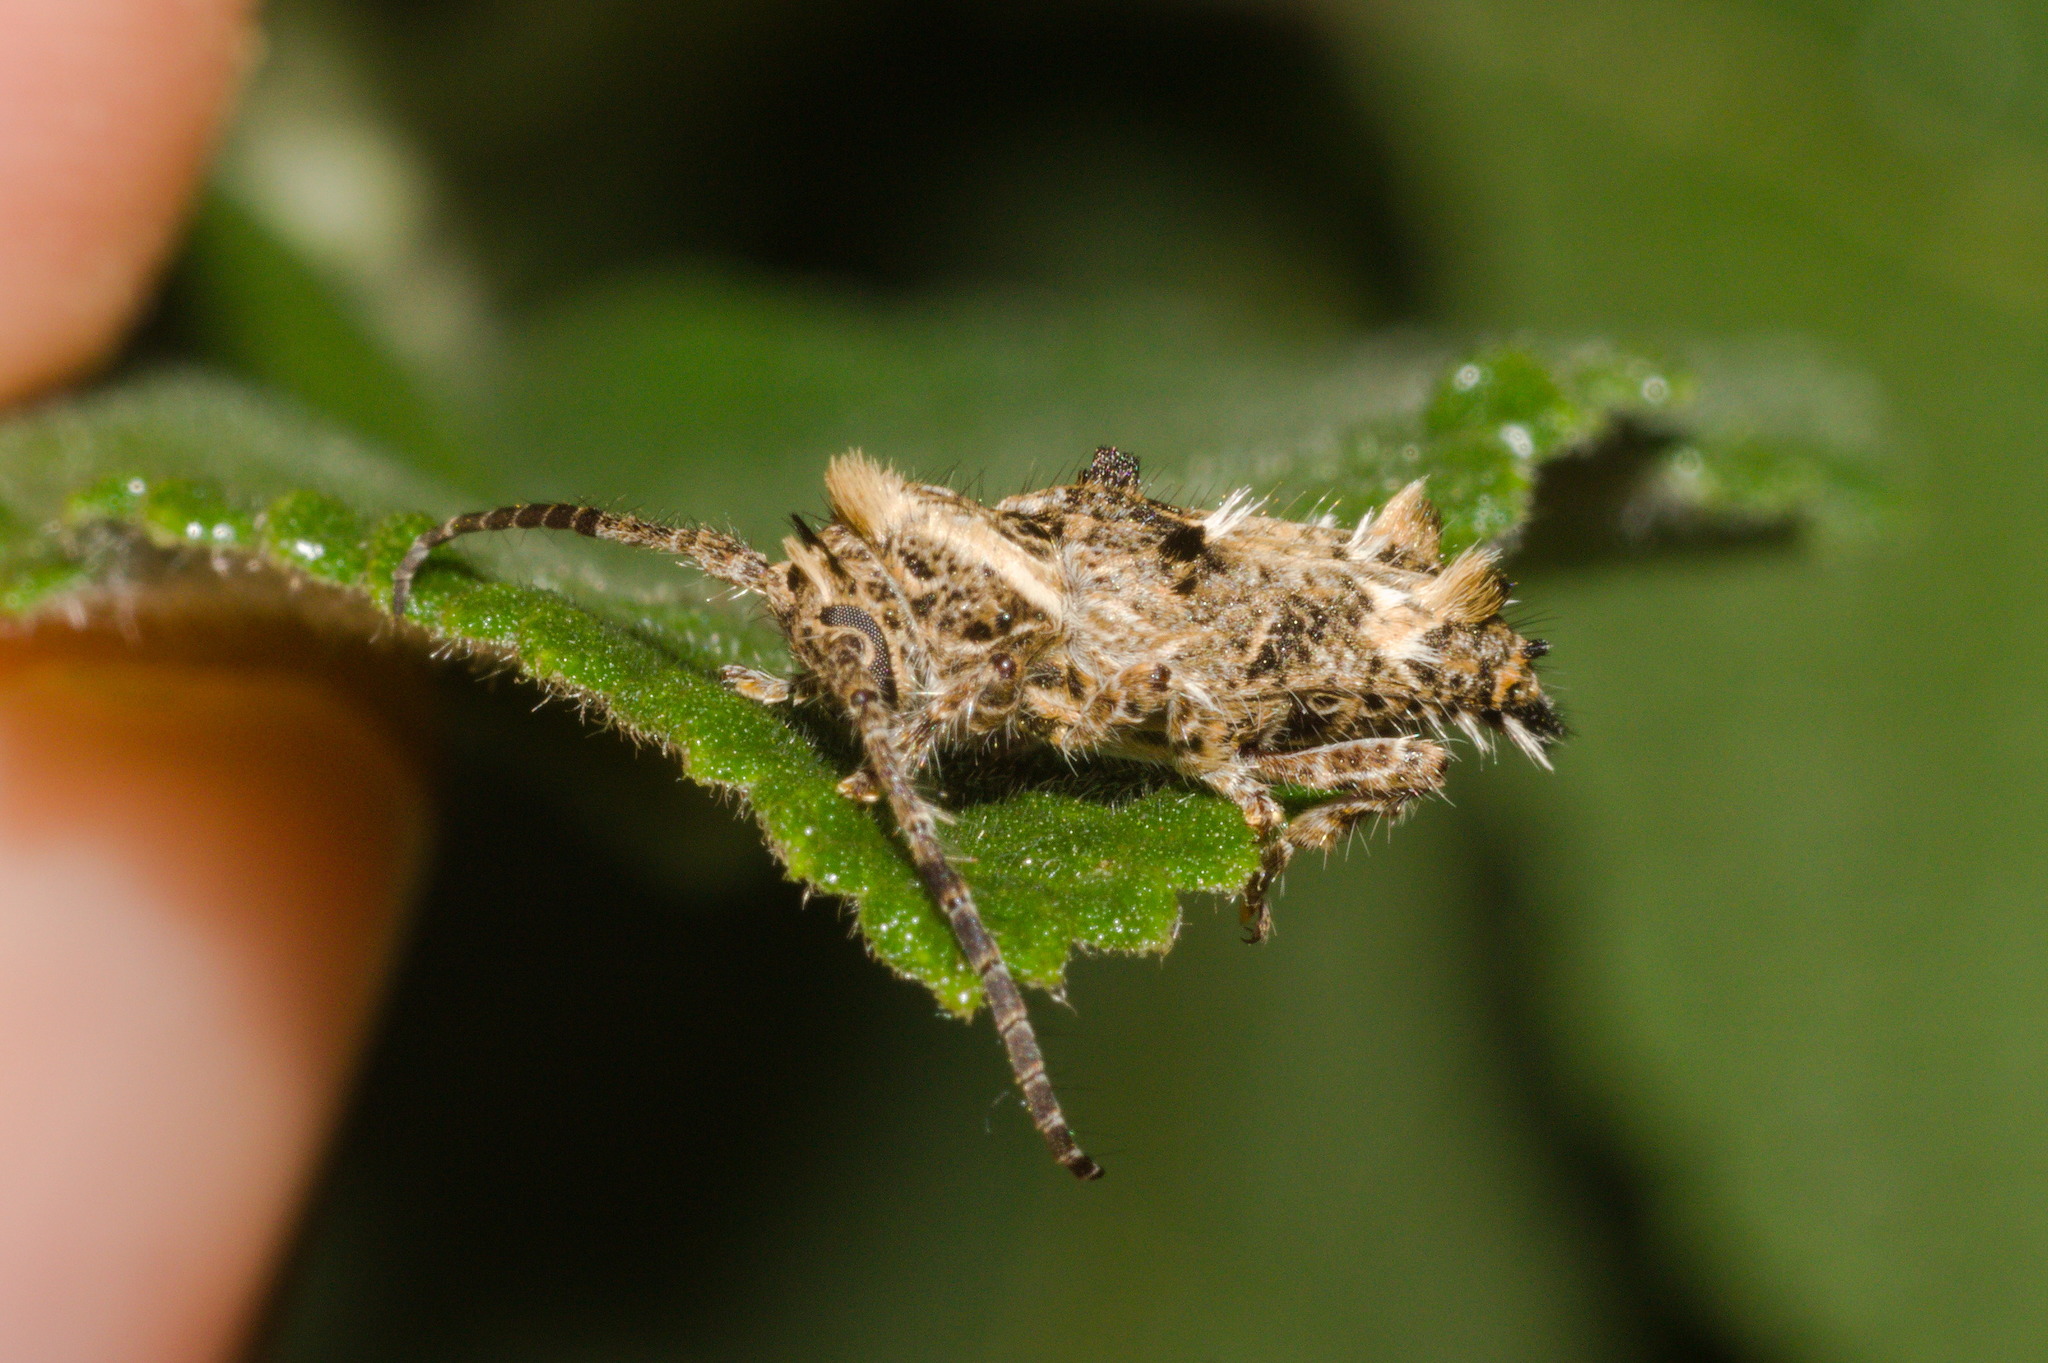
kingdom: Animalia
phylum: Arthropoda
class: Insecta
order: Coleoptera
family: Cerambycidae
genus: Desmiphora
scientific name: Desmiphora hirticollis
